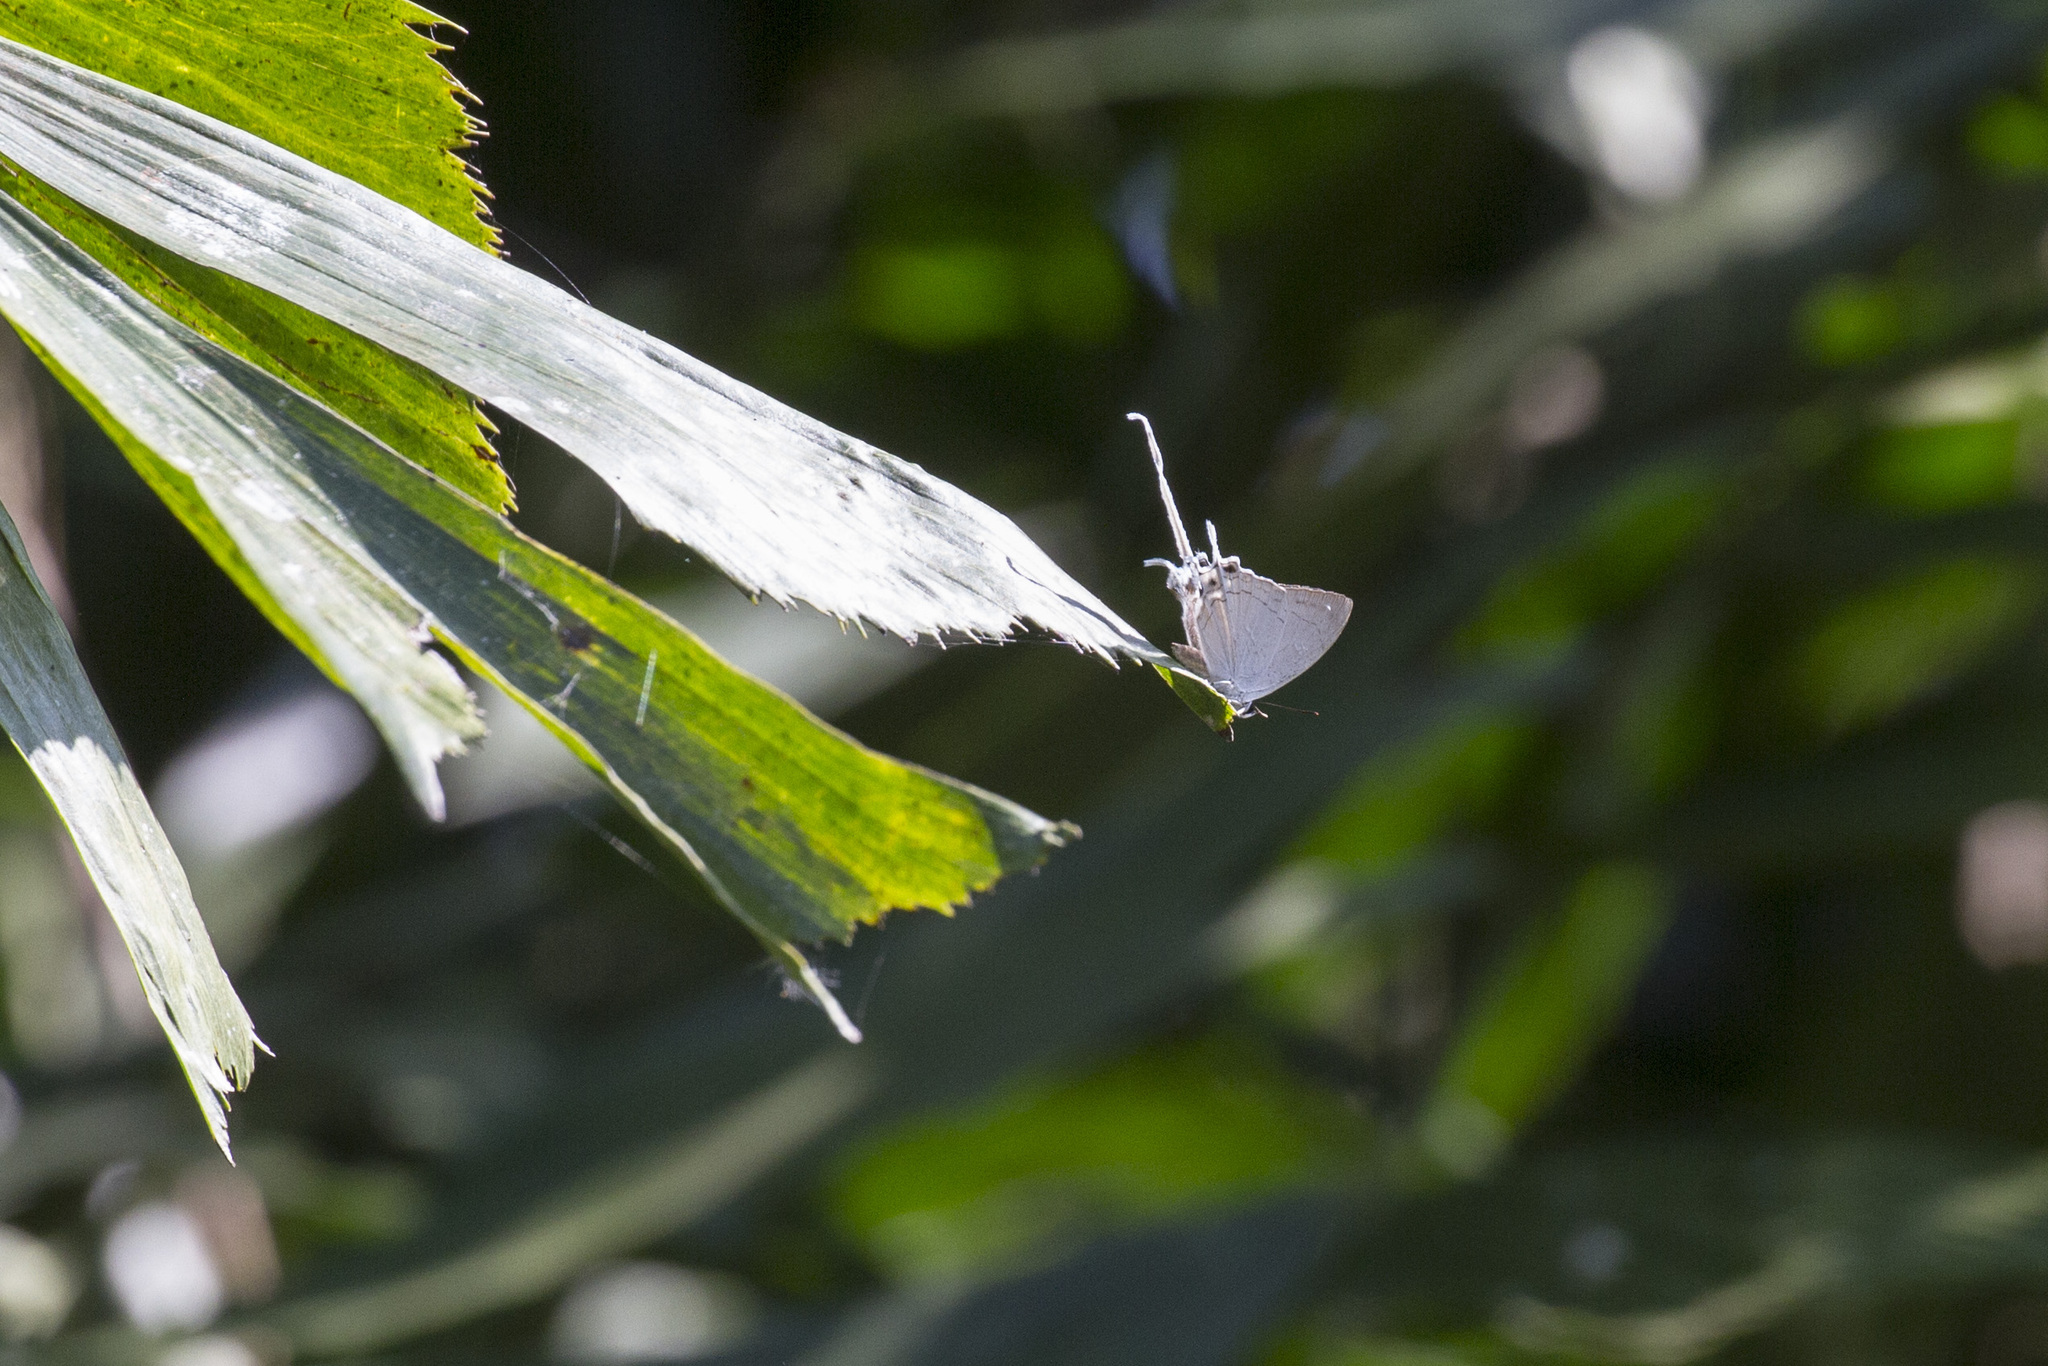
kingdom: Animalia
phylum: Arthropoda
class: Insecta
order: Lepidoptera
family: Lycaenidae
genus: Cheritra
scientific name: Cheritra freja
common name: Common imperial
